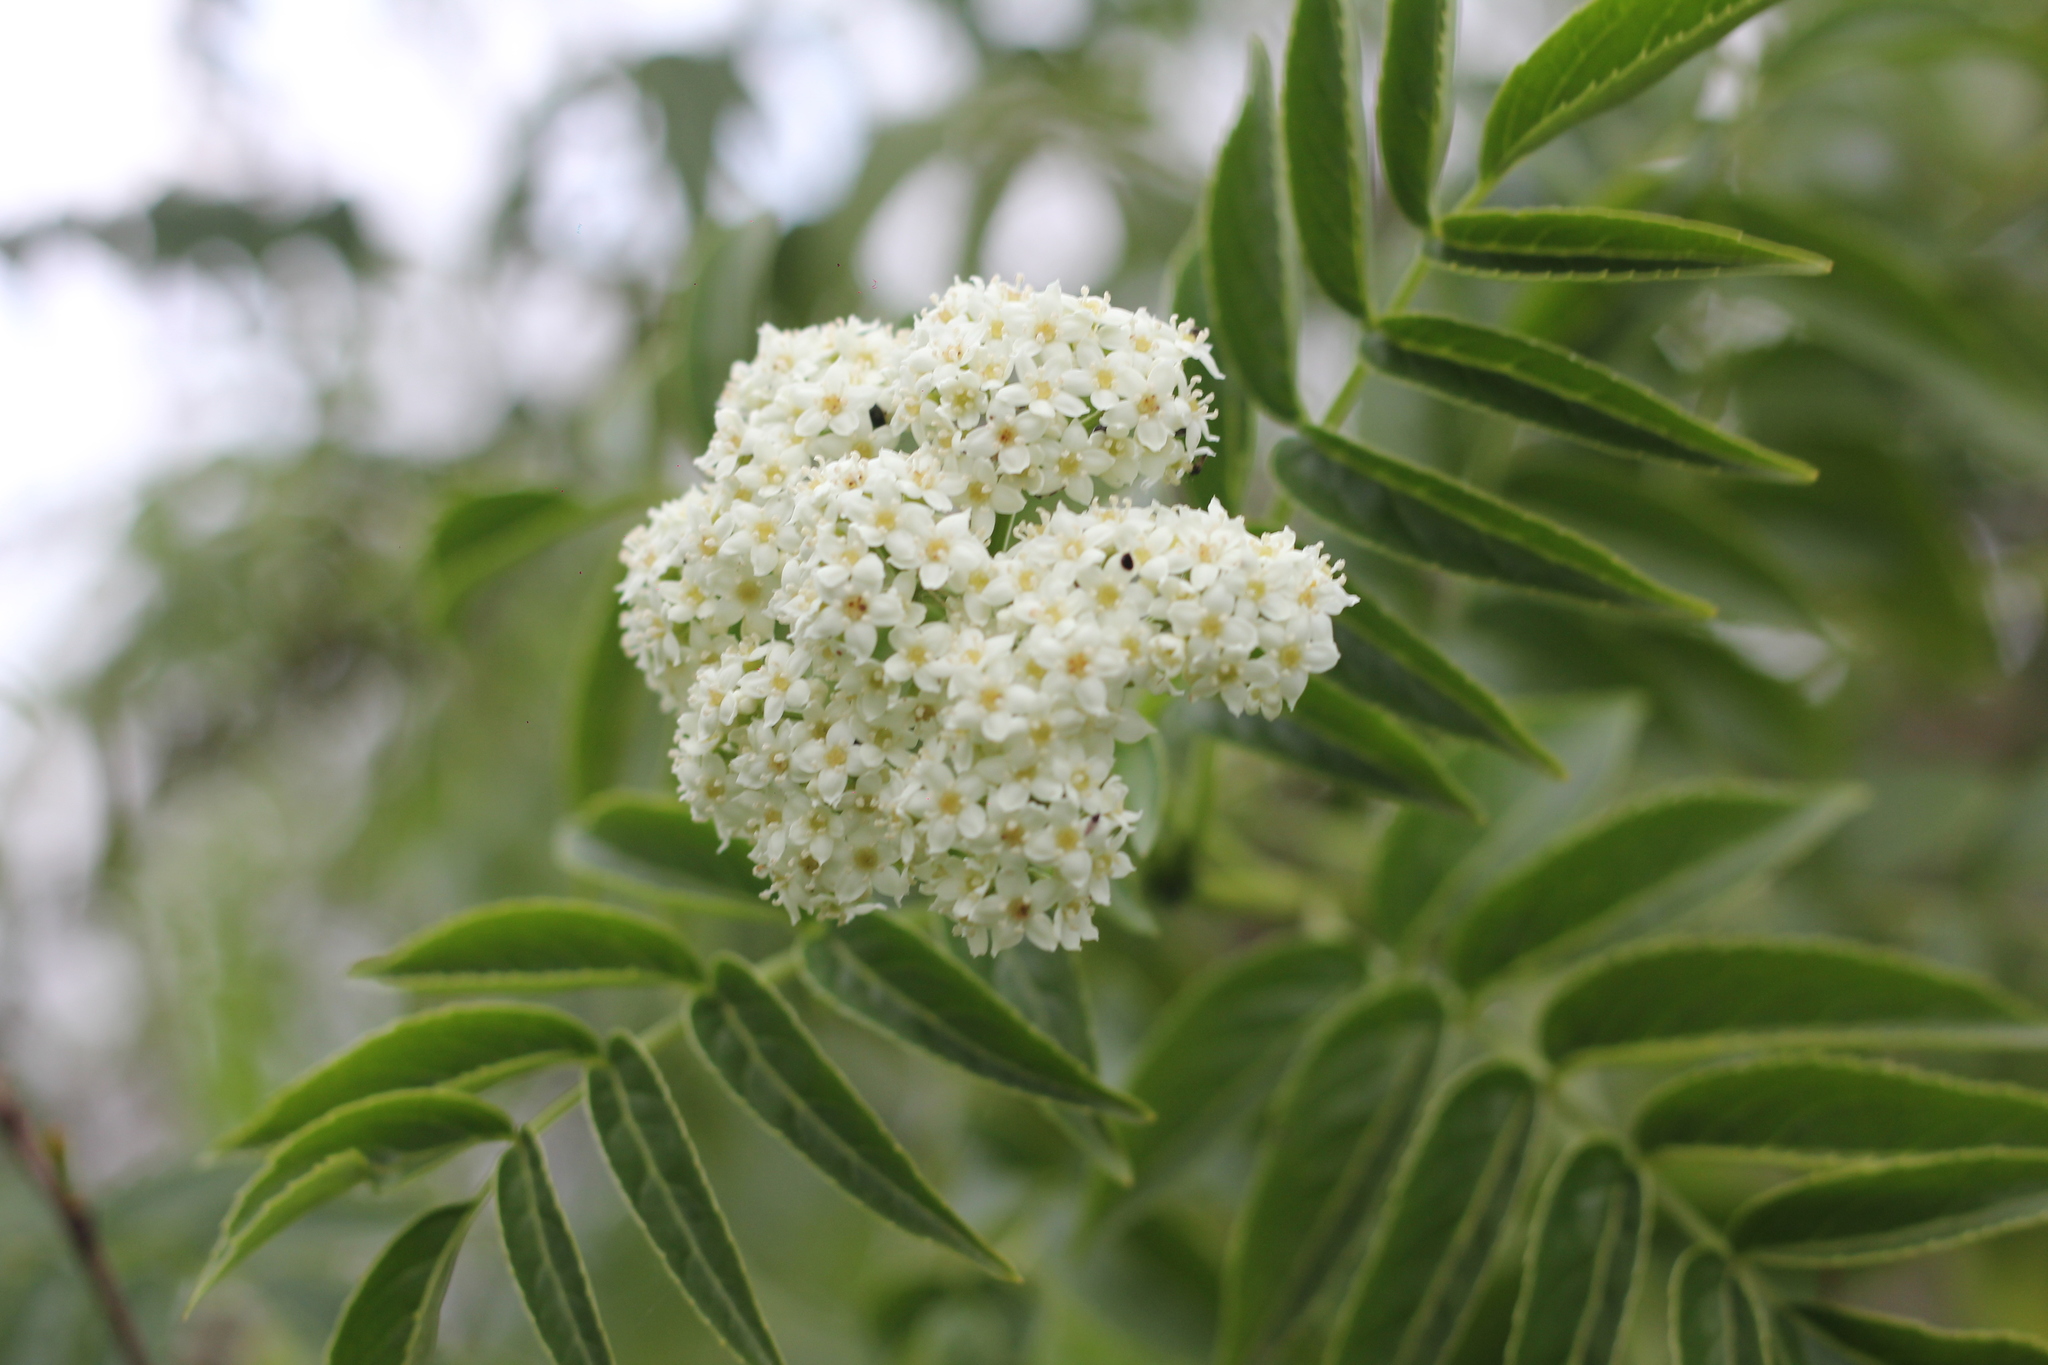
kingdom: Plantae
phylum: Tracheophyta
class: Magnoliopsida
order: Dipsacales
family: Viburnaceae
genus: Sambucus
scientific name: Sambucus australis
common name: Southern elder
